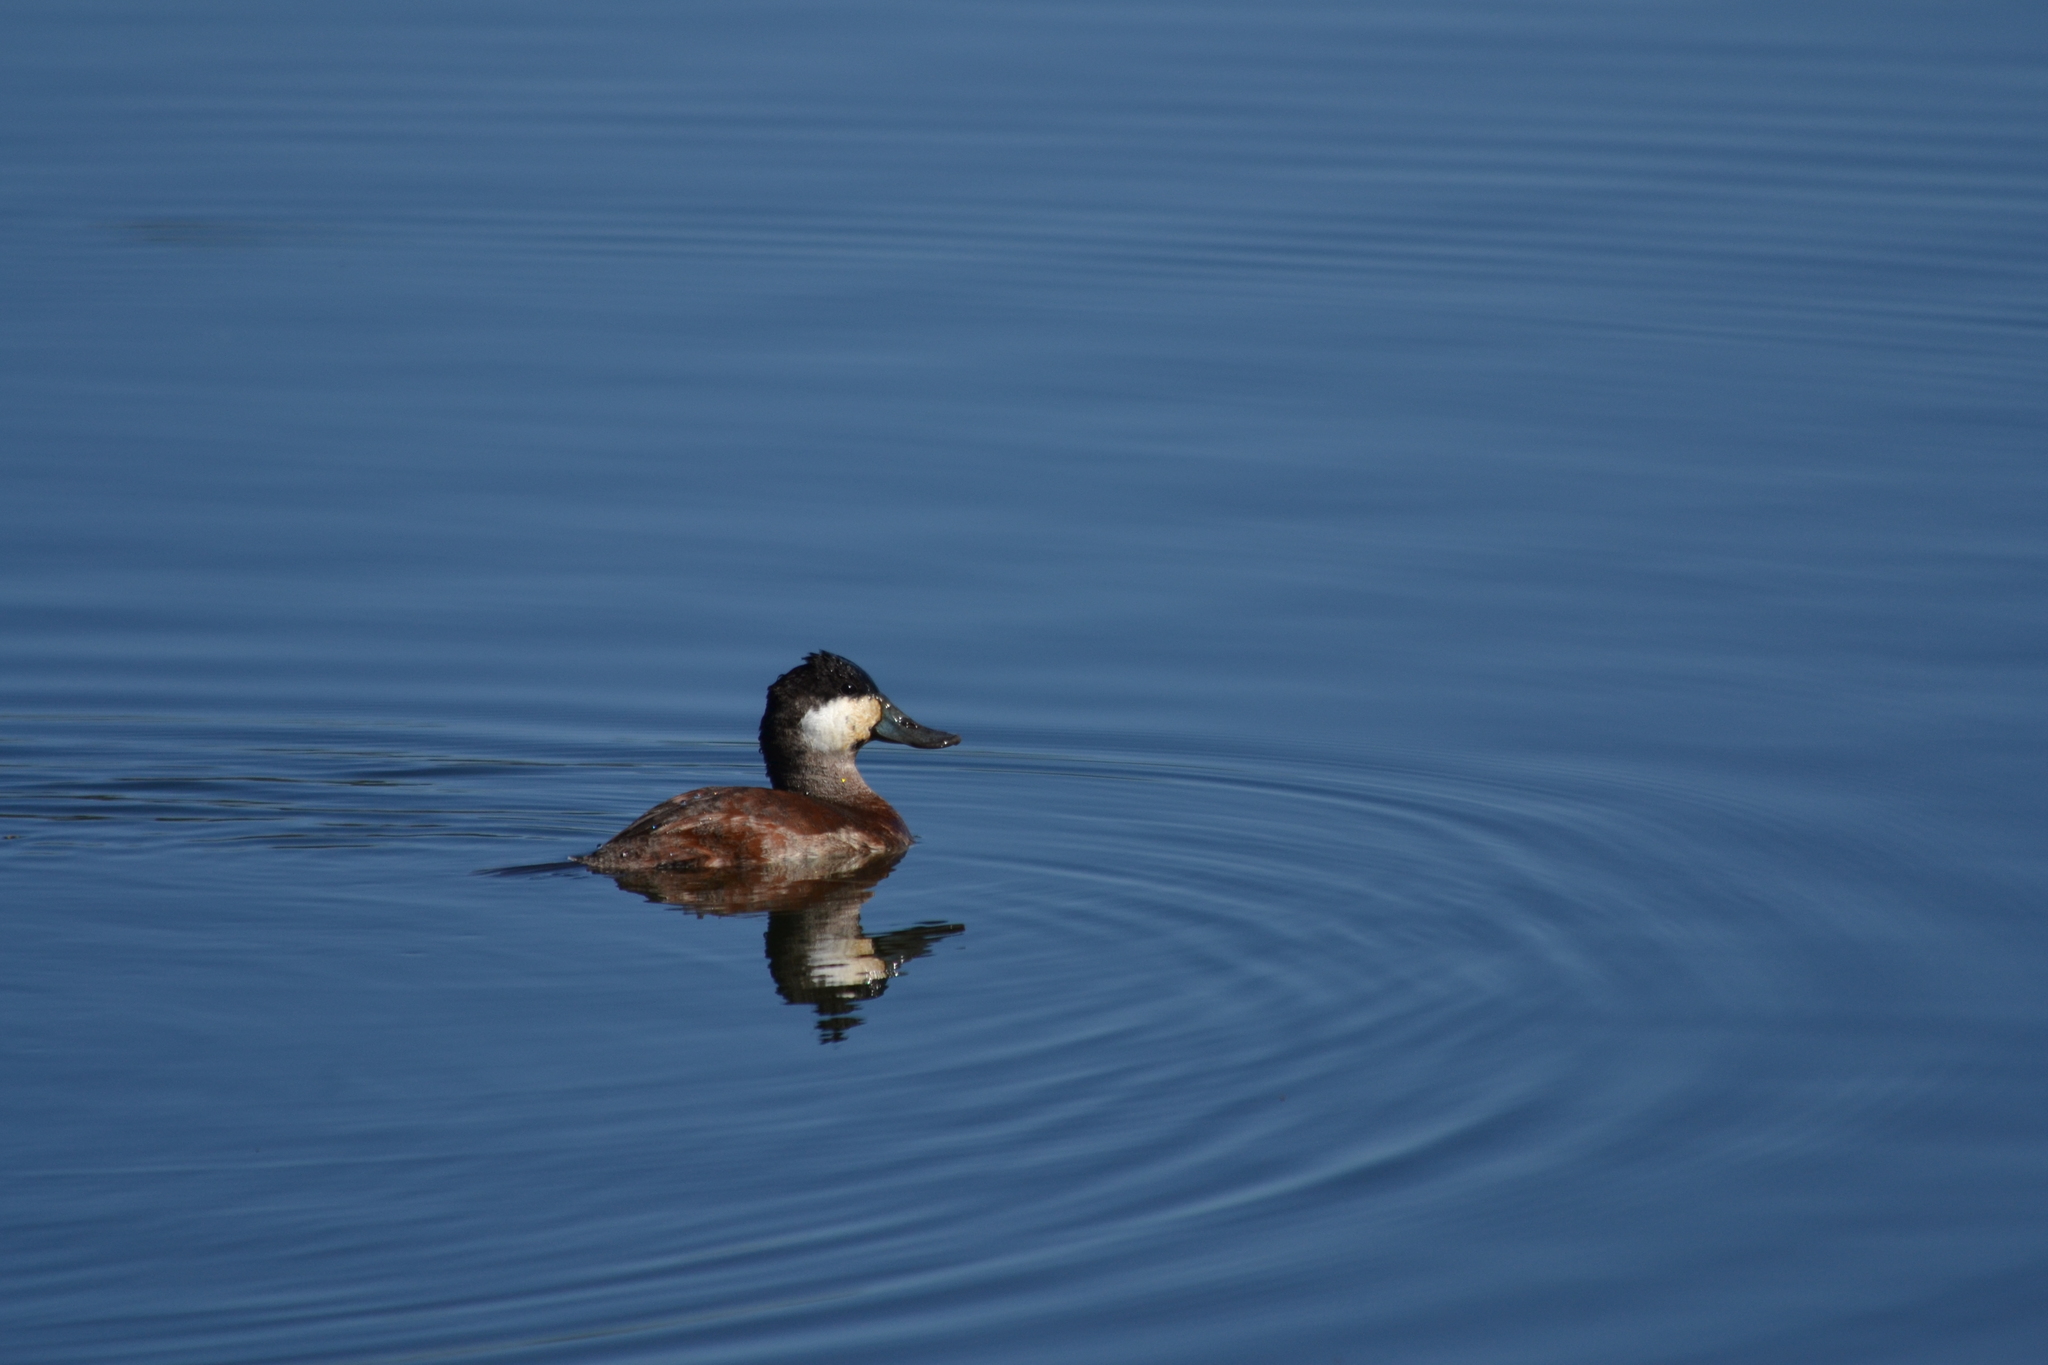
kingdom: Animalia
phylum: Chordata
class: Aves
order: Anseriformes
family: Anatidae
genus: Oxyura
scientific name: Oxyura jamaicensis
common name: Ruddy duck
